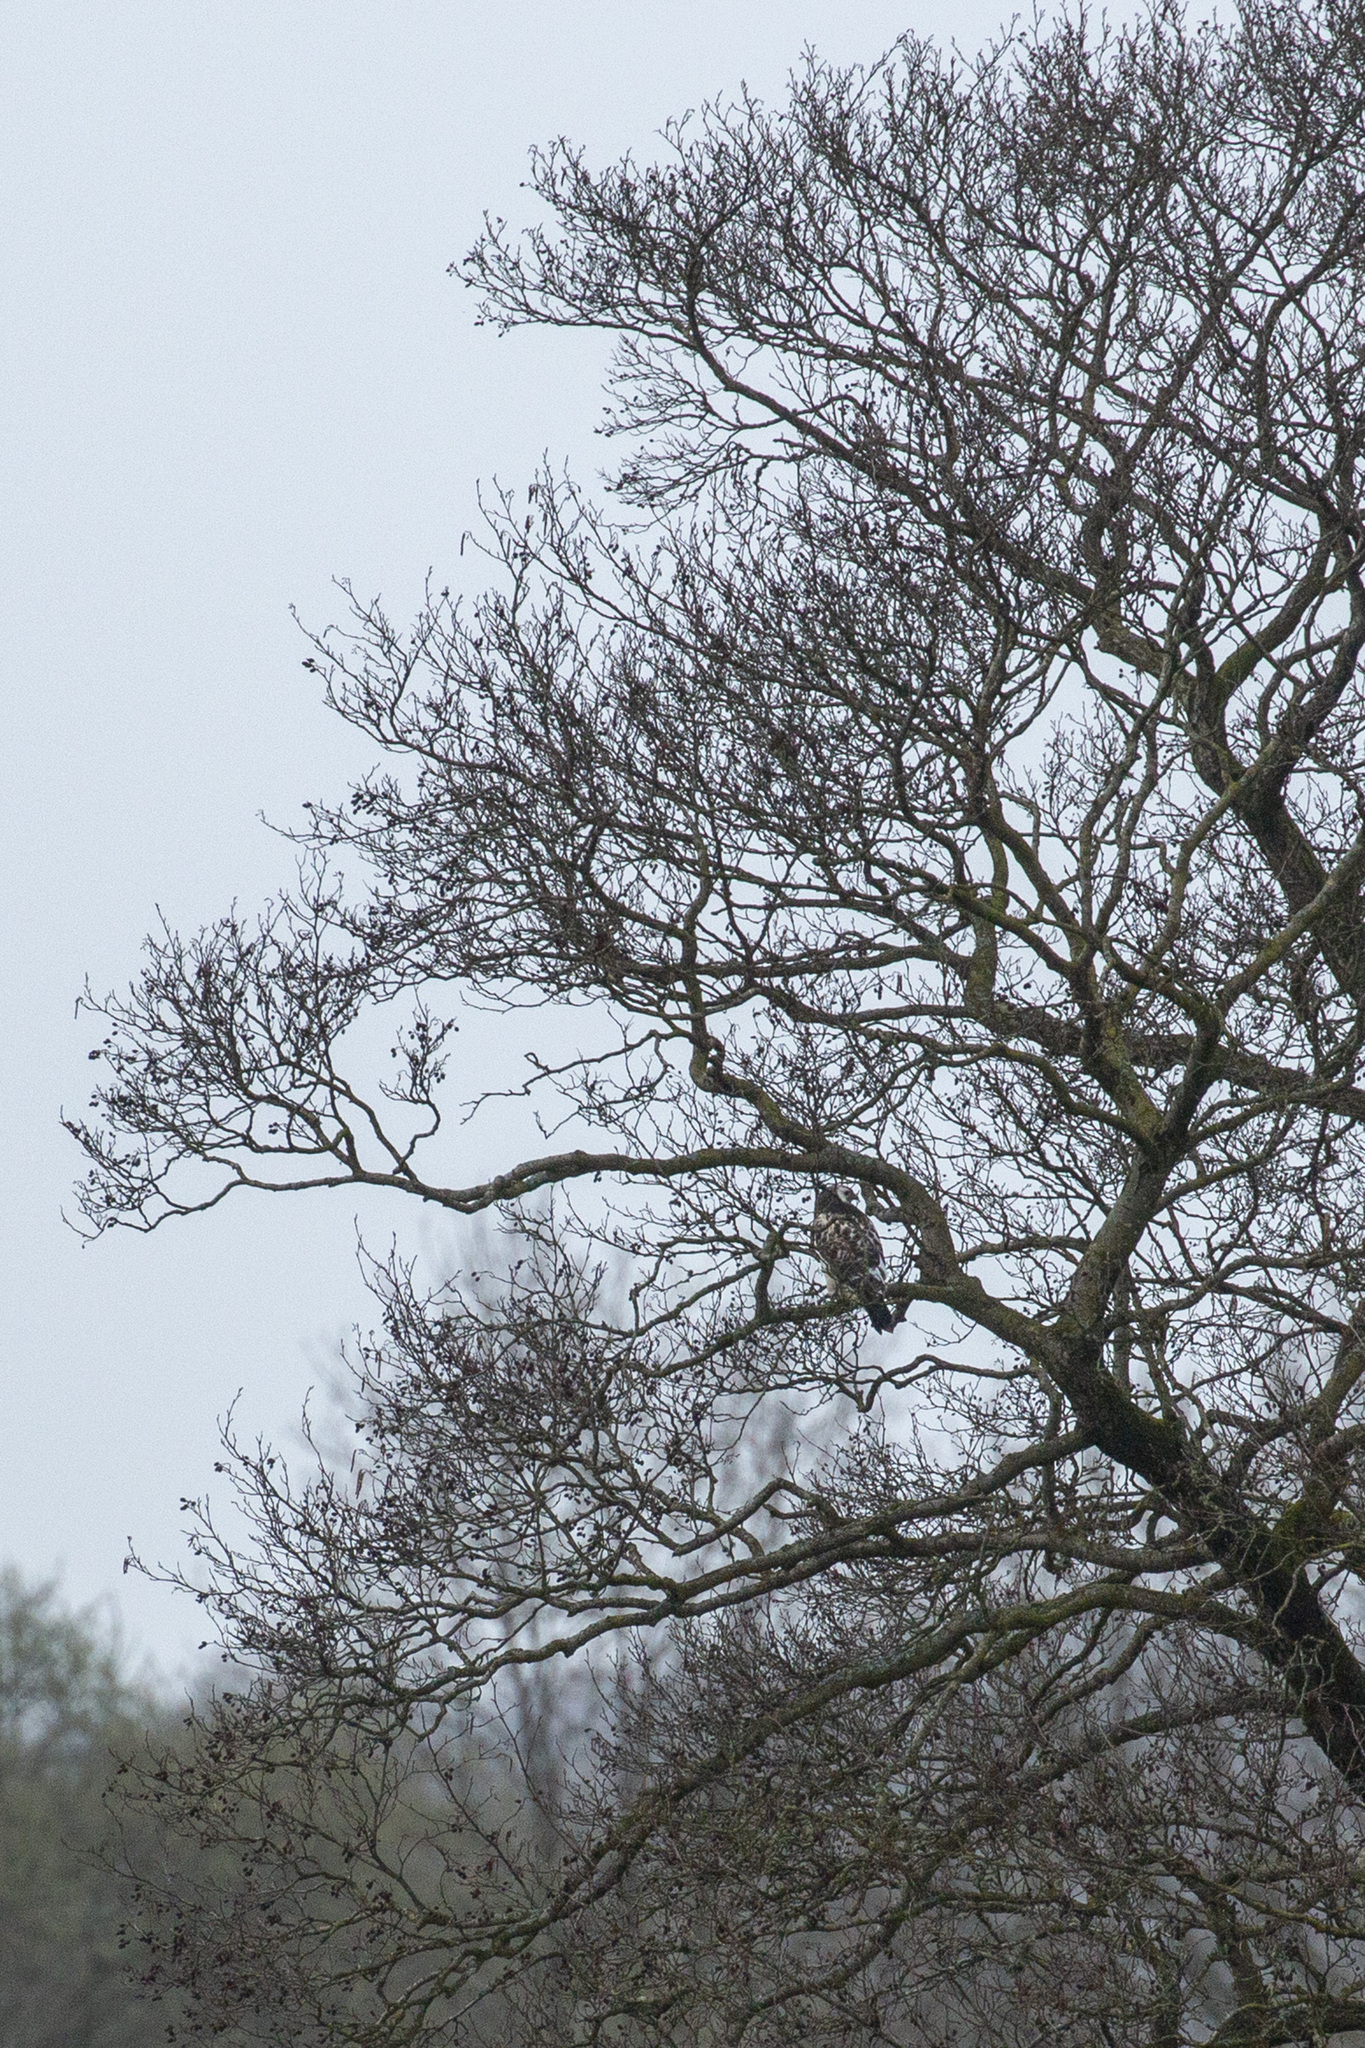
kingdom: Animalia
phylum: Chordata
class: Aves
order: Accipitriformes
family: Accipitridae
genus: Buteo
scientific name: Buteo buteo
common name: Common buzzard
